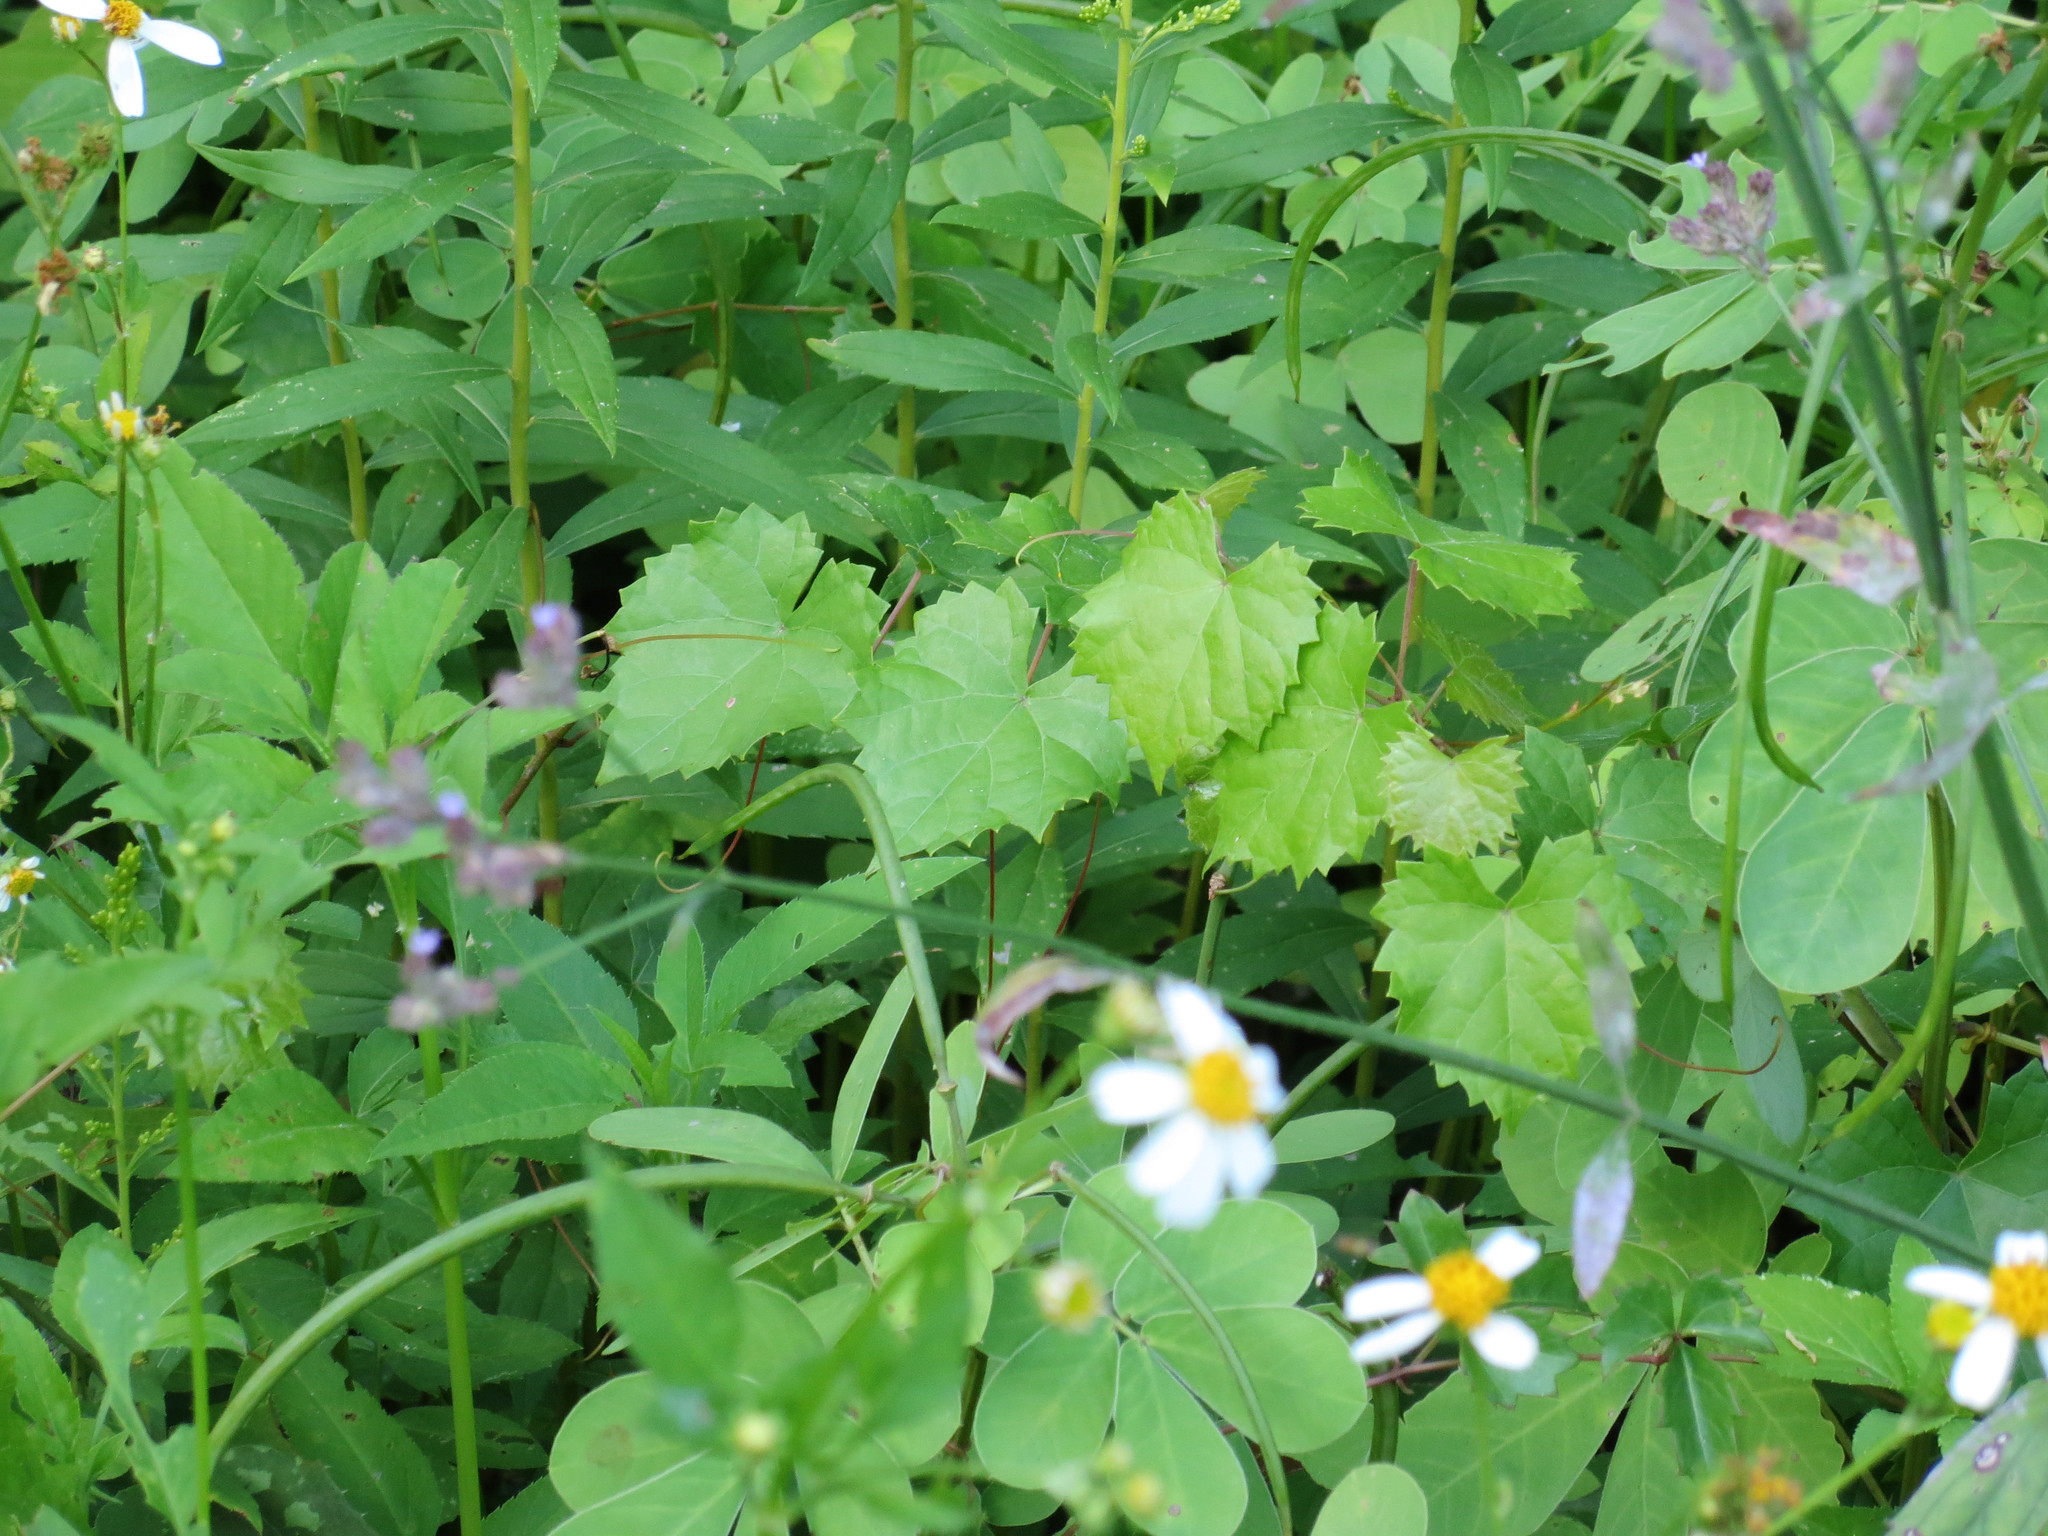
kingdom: Plantae
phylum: Tracheophyta
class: Magnoliopsida
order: Vitales
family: Vitaceae
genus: Vitis
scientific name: Vitis rotundifolia
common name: Muscadine grape
